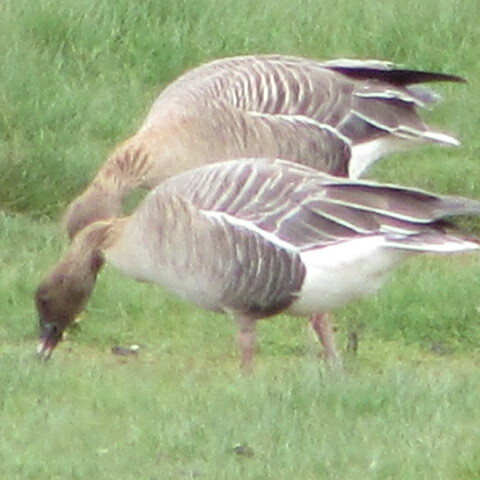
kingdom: Animalia
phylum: Chordata
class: Aves
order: Anseriformes
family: Anatidae
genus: Anser
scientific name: Anser brachyrhynchus
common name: Pink-footed goose
